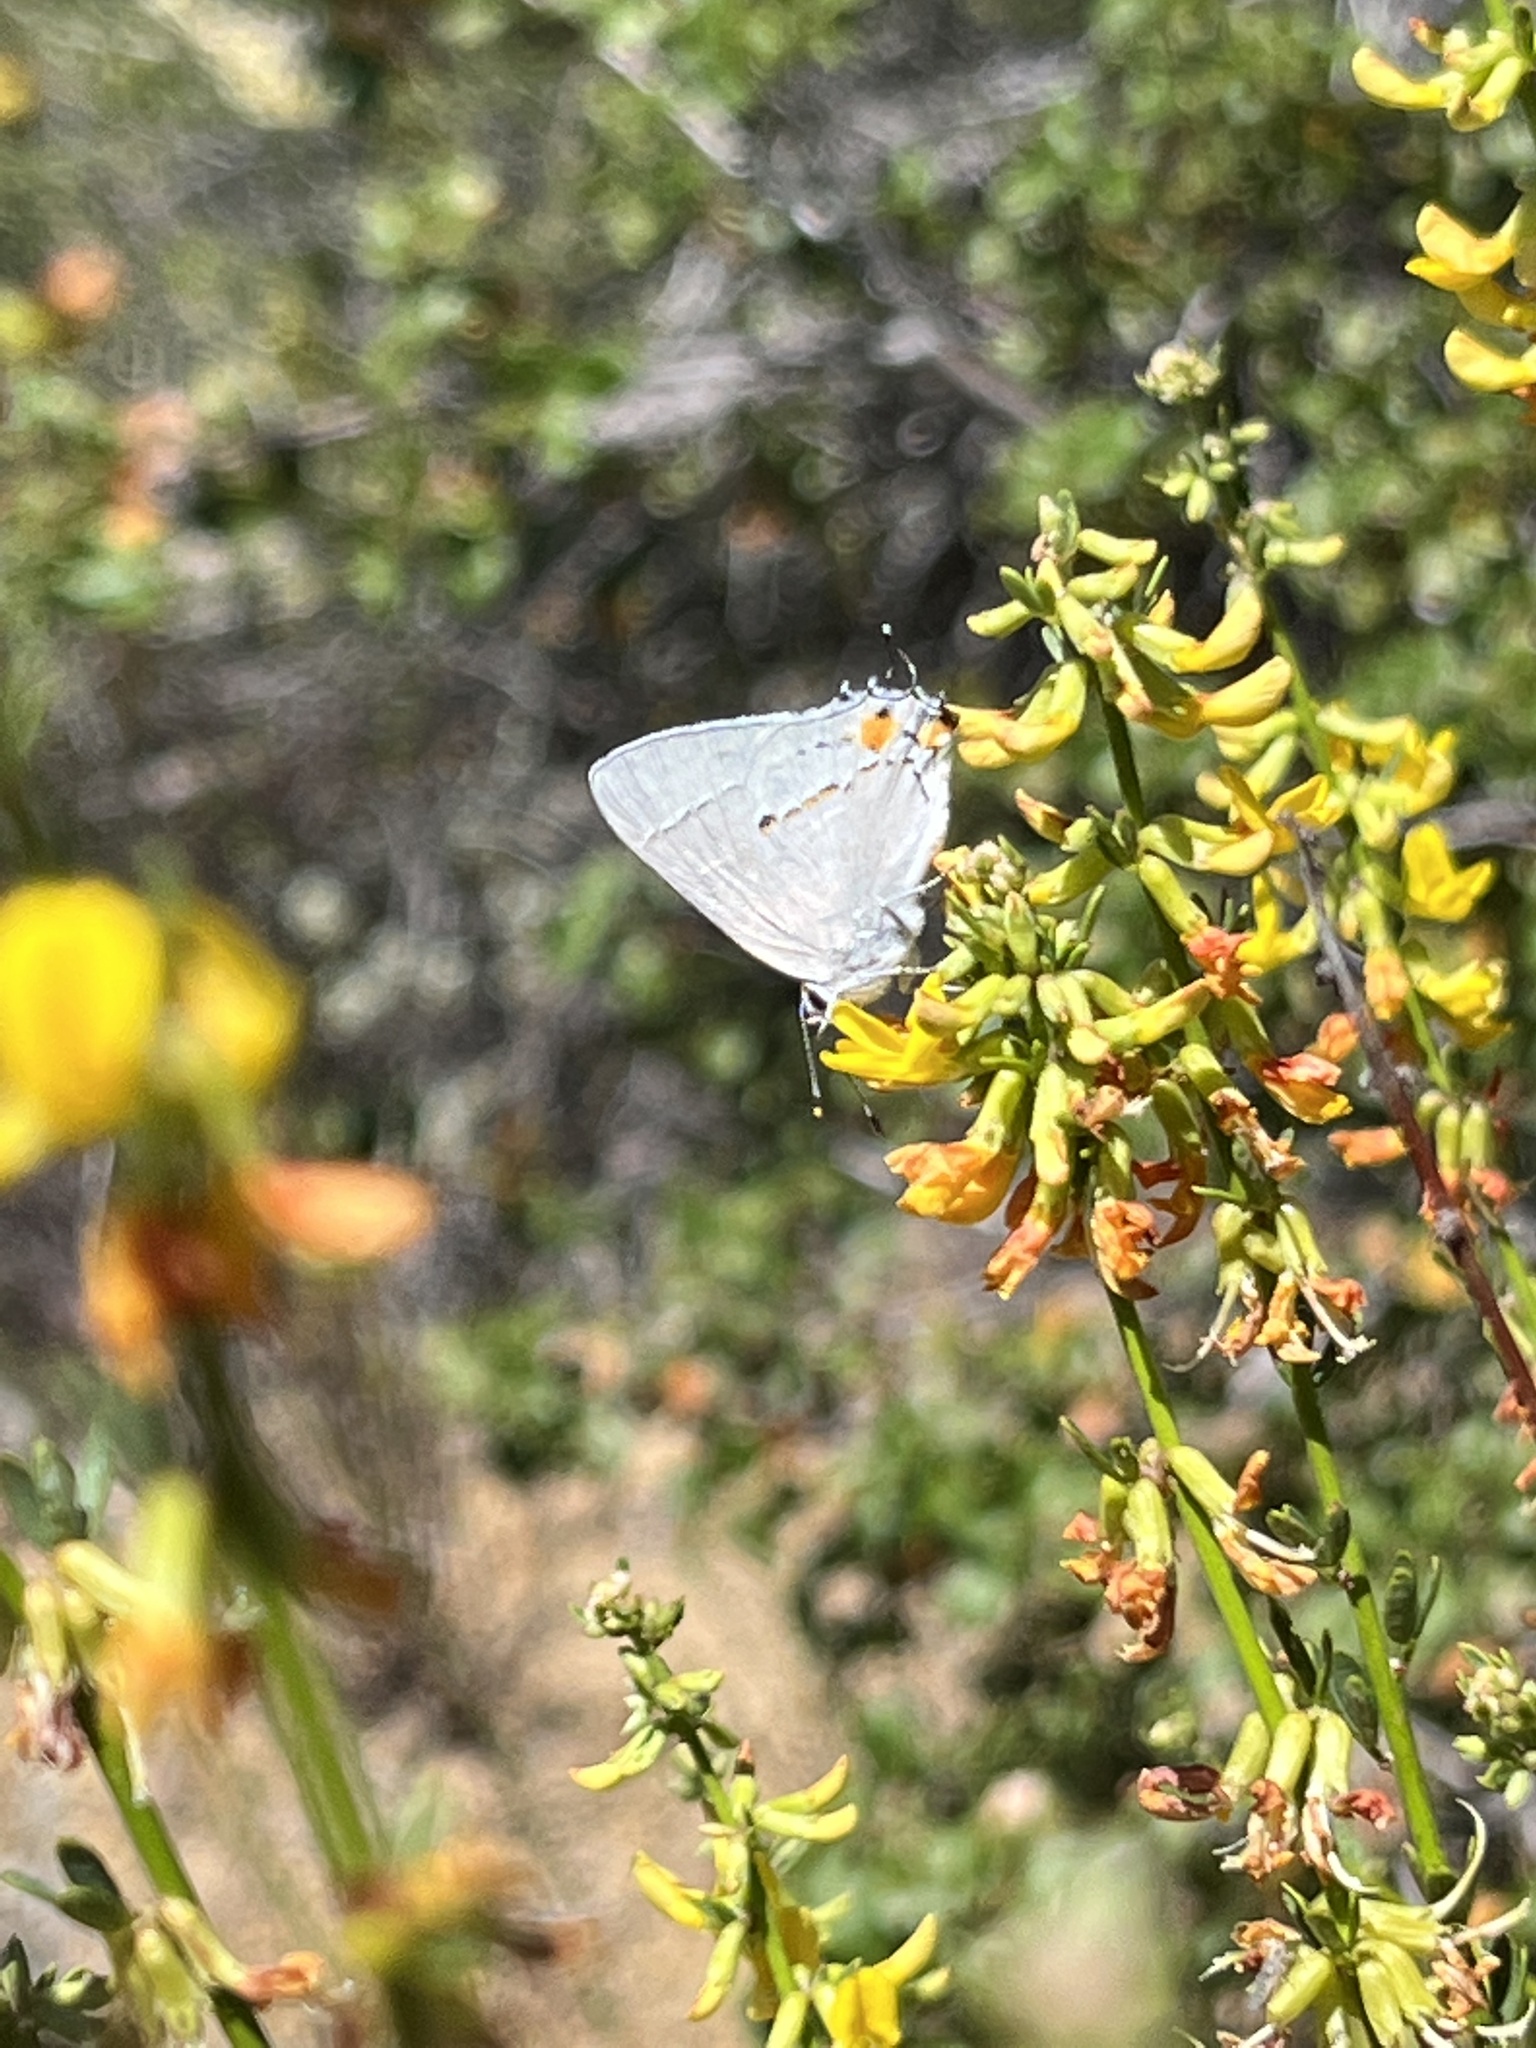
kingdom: Animalia
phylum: Arthropoda
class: Insecta
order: Lepidoptera
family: Lycaenidae
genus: Strymon
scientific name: Strymon melinus
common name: Gray hairstreak
